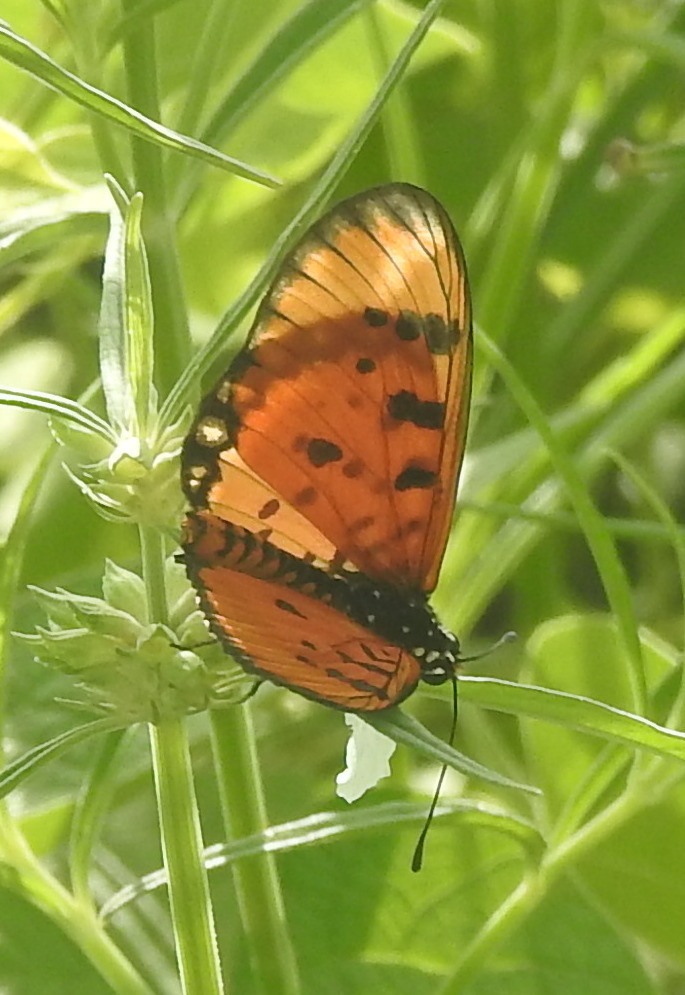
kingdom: Animalia
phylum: Arthropoda
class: Insecta
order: Lepidoptera
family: Nymphalidae
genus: Acraea
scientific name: Acraea terpsicore
